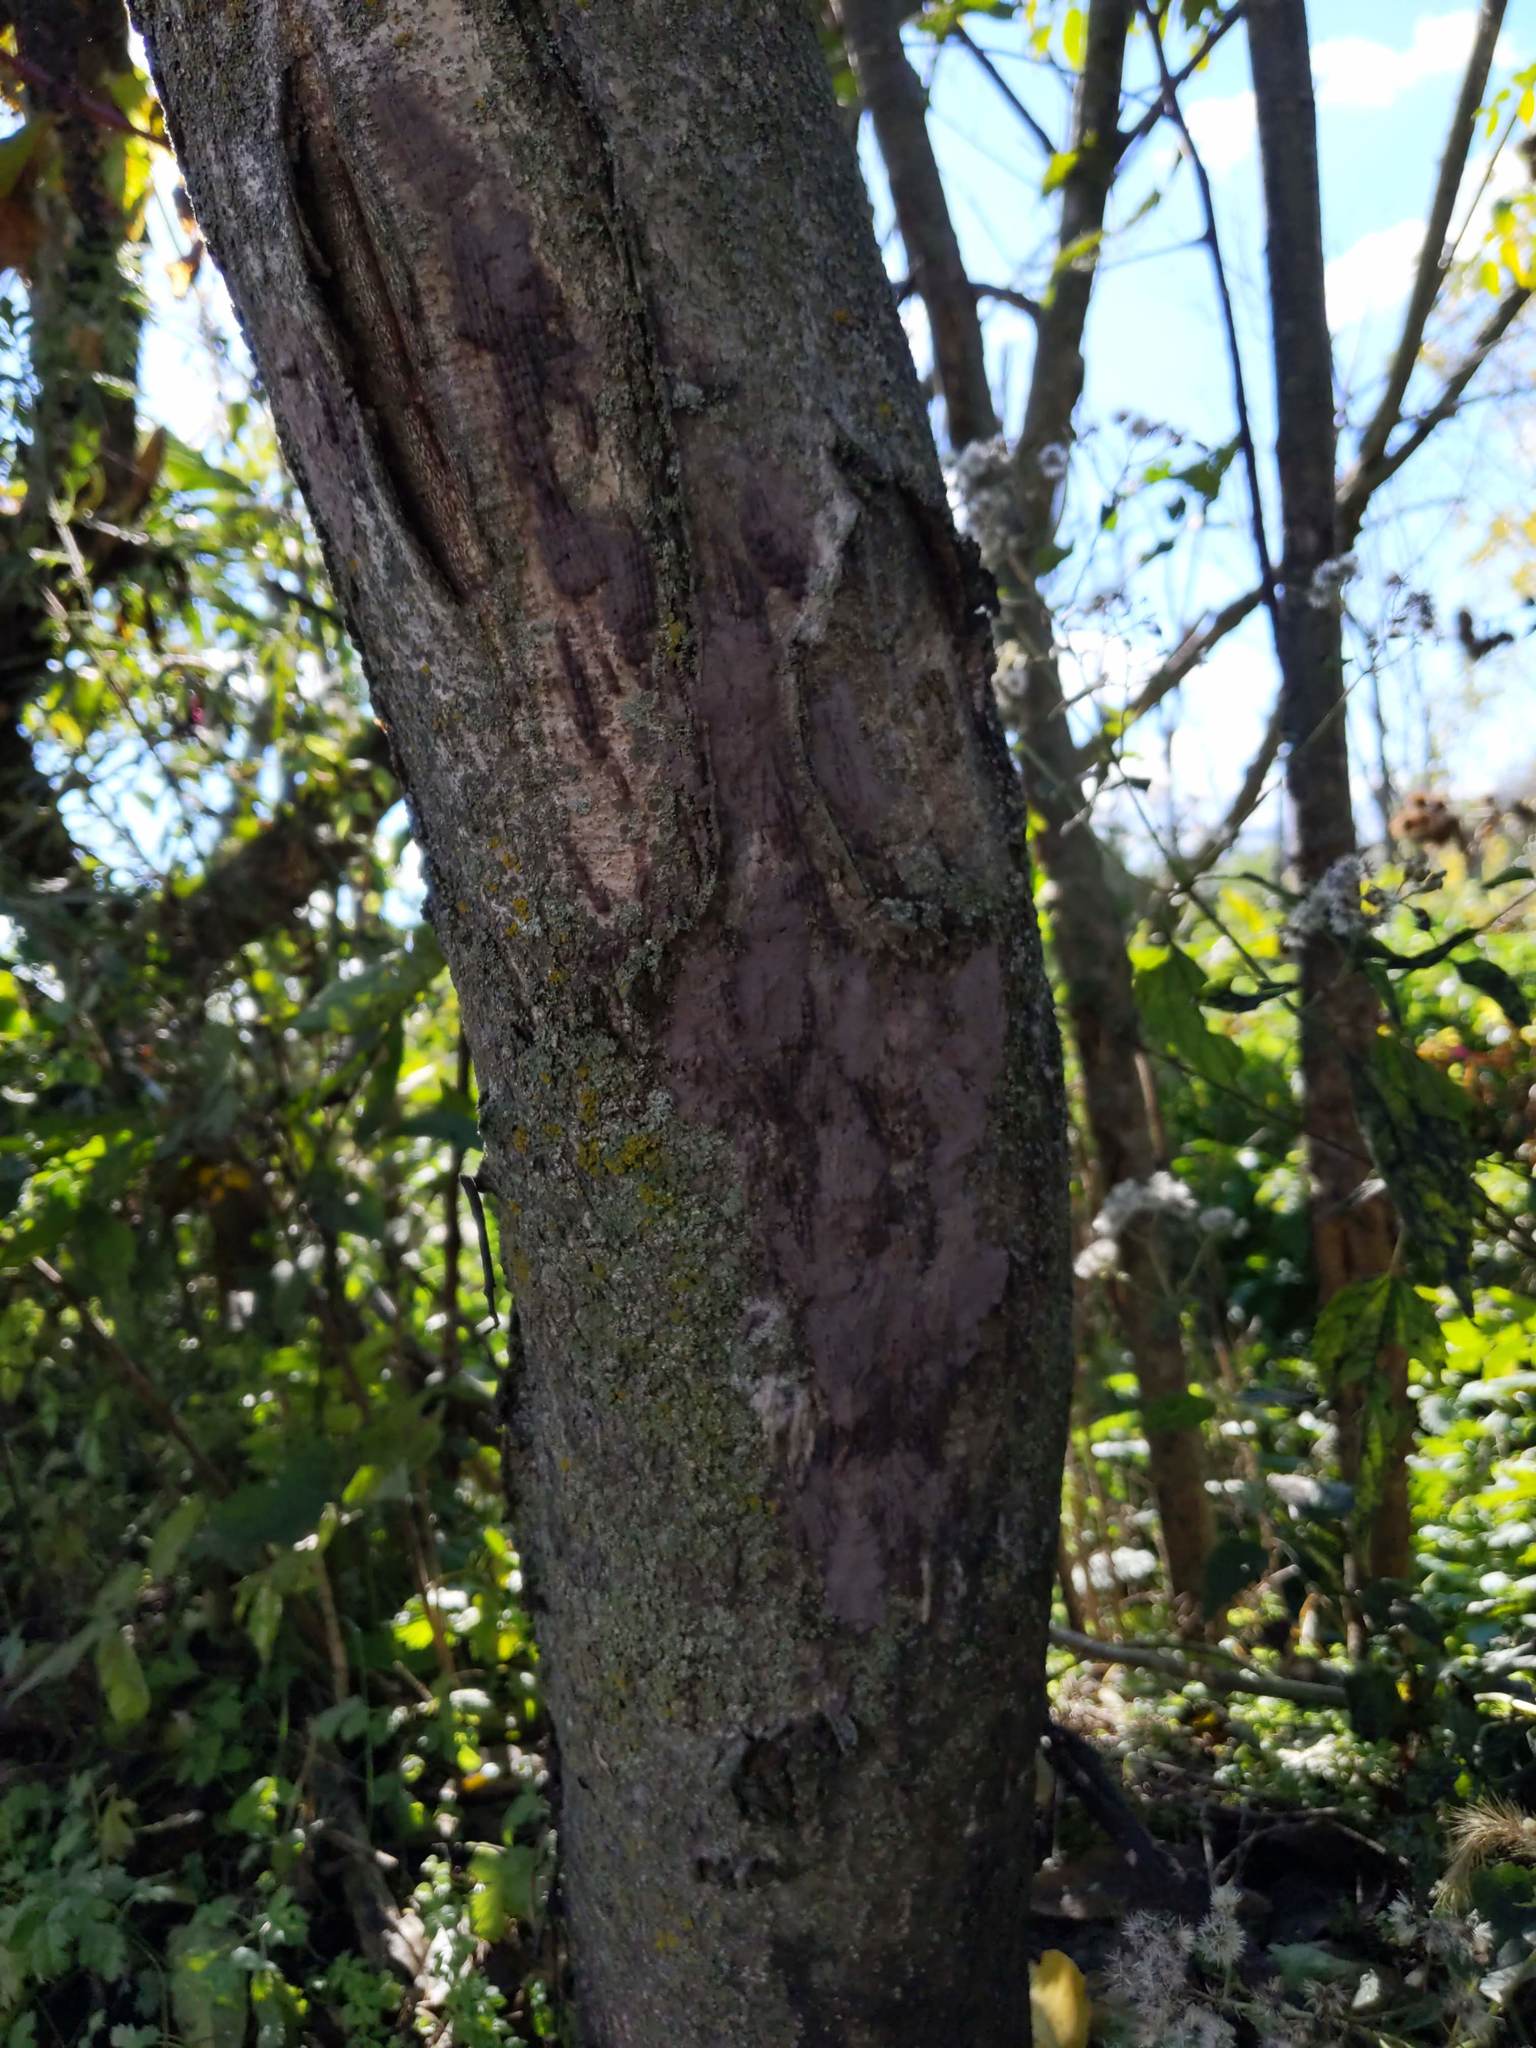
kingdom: Animalia
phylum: Arthropoda
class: Insecta
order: Hemiptera
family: Fulgoridae
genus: Lycorma
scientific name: Lycorma delicatula
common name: Spotted lanternfly
